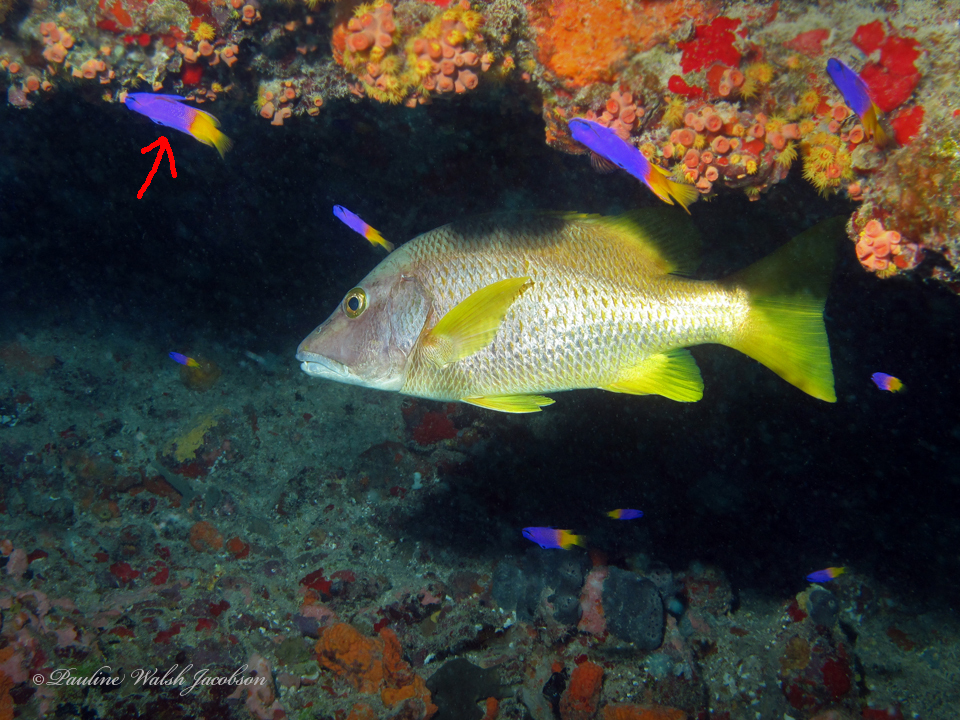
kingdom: Animalia
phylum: Chordata
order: Perciformes
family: Grammatidae
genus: Gramma
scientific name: Gramma loreto
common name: Fairy basslet
